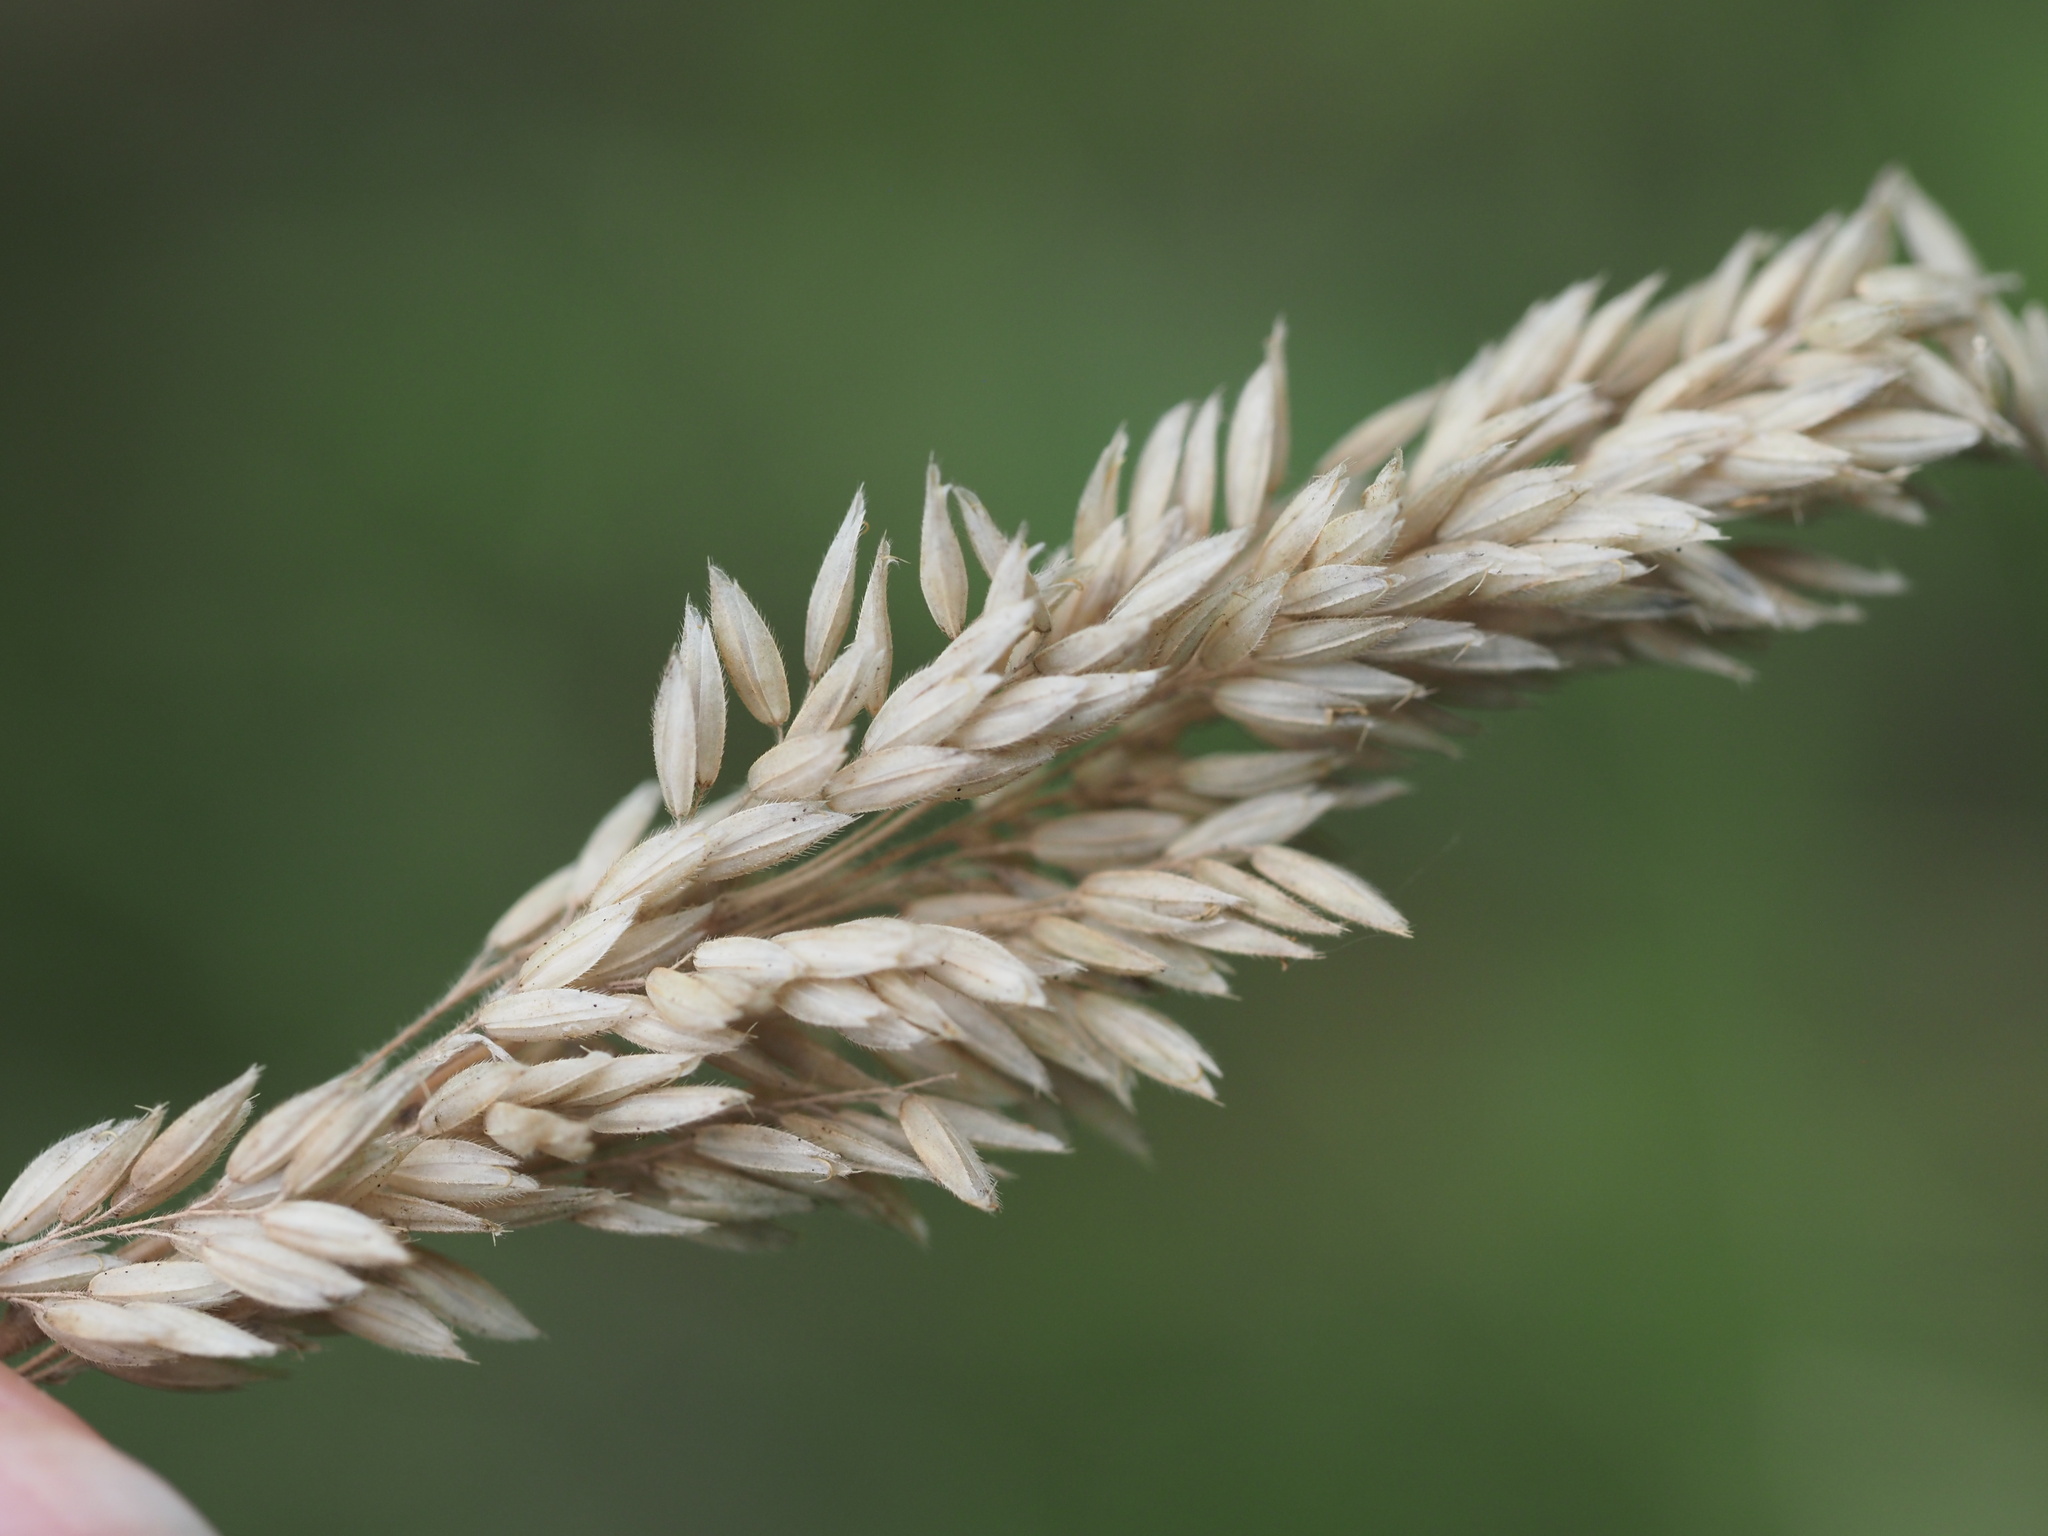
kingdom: Plantae
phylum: Tracheophyta
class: Liliopsida
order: Poales
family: Poaceae
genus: Holcus
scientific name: Holcus lanatus
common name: Yorkshire-fog
